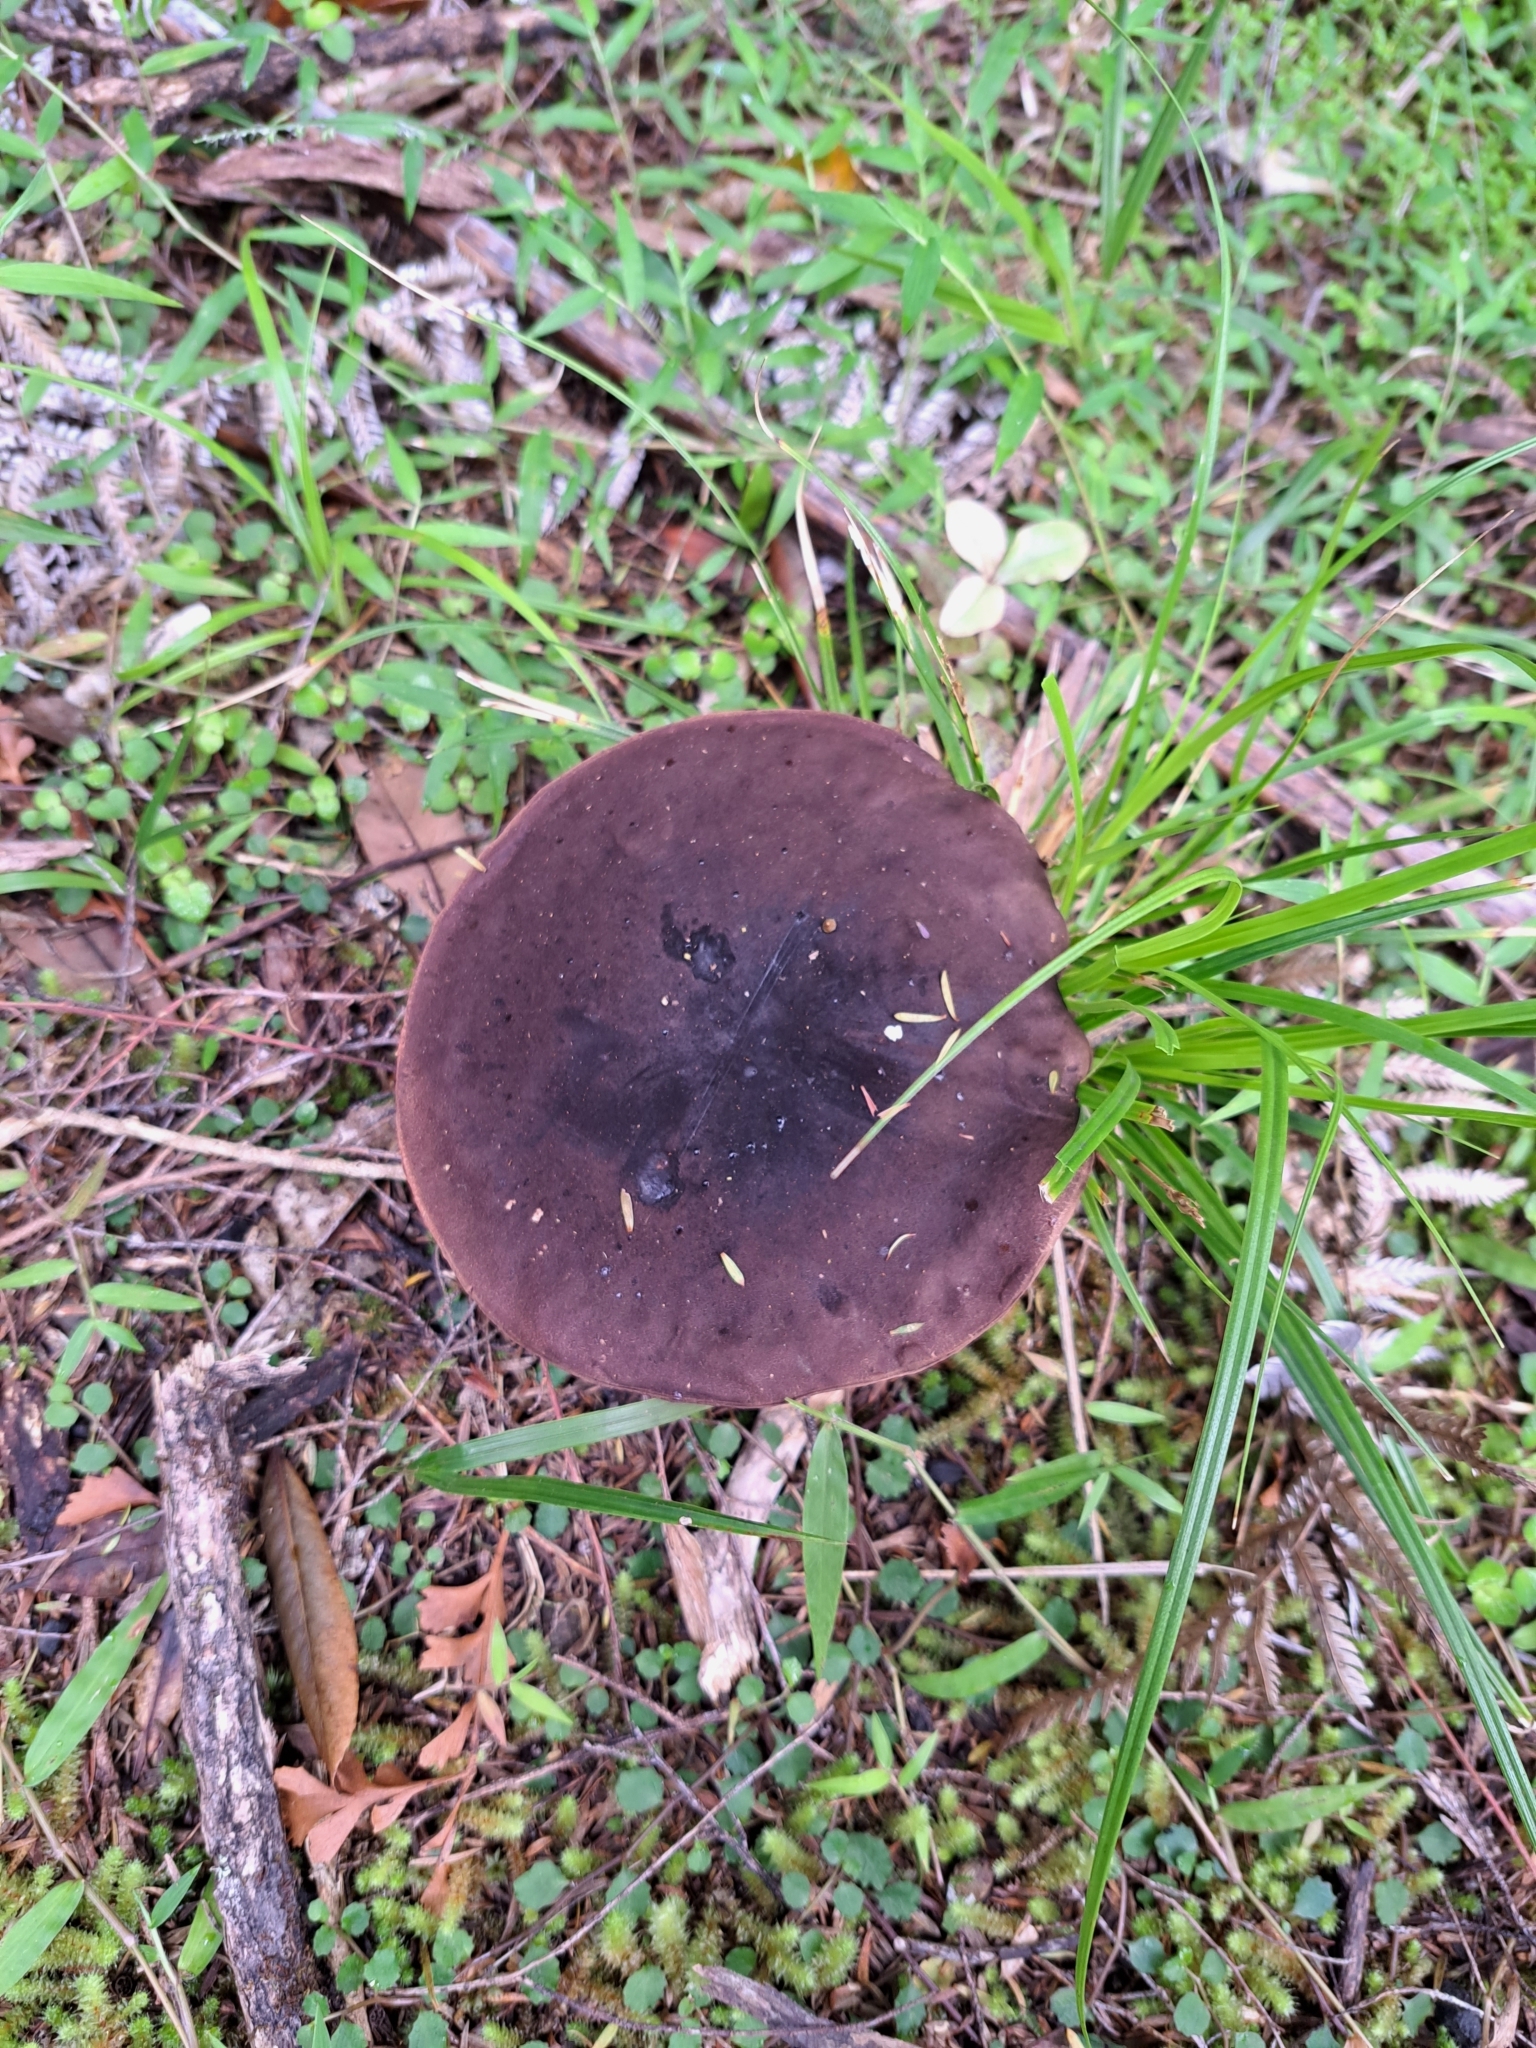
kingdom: Fungi
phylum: Basidiomycota
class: Agaricomycetes
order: Boletales
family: Boletaceae
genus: Porphyrellus
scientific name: Porphyrellus formosus
